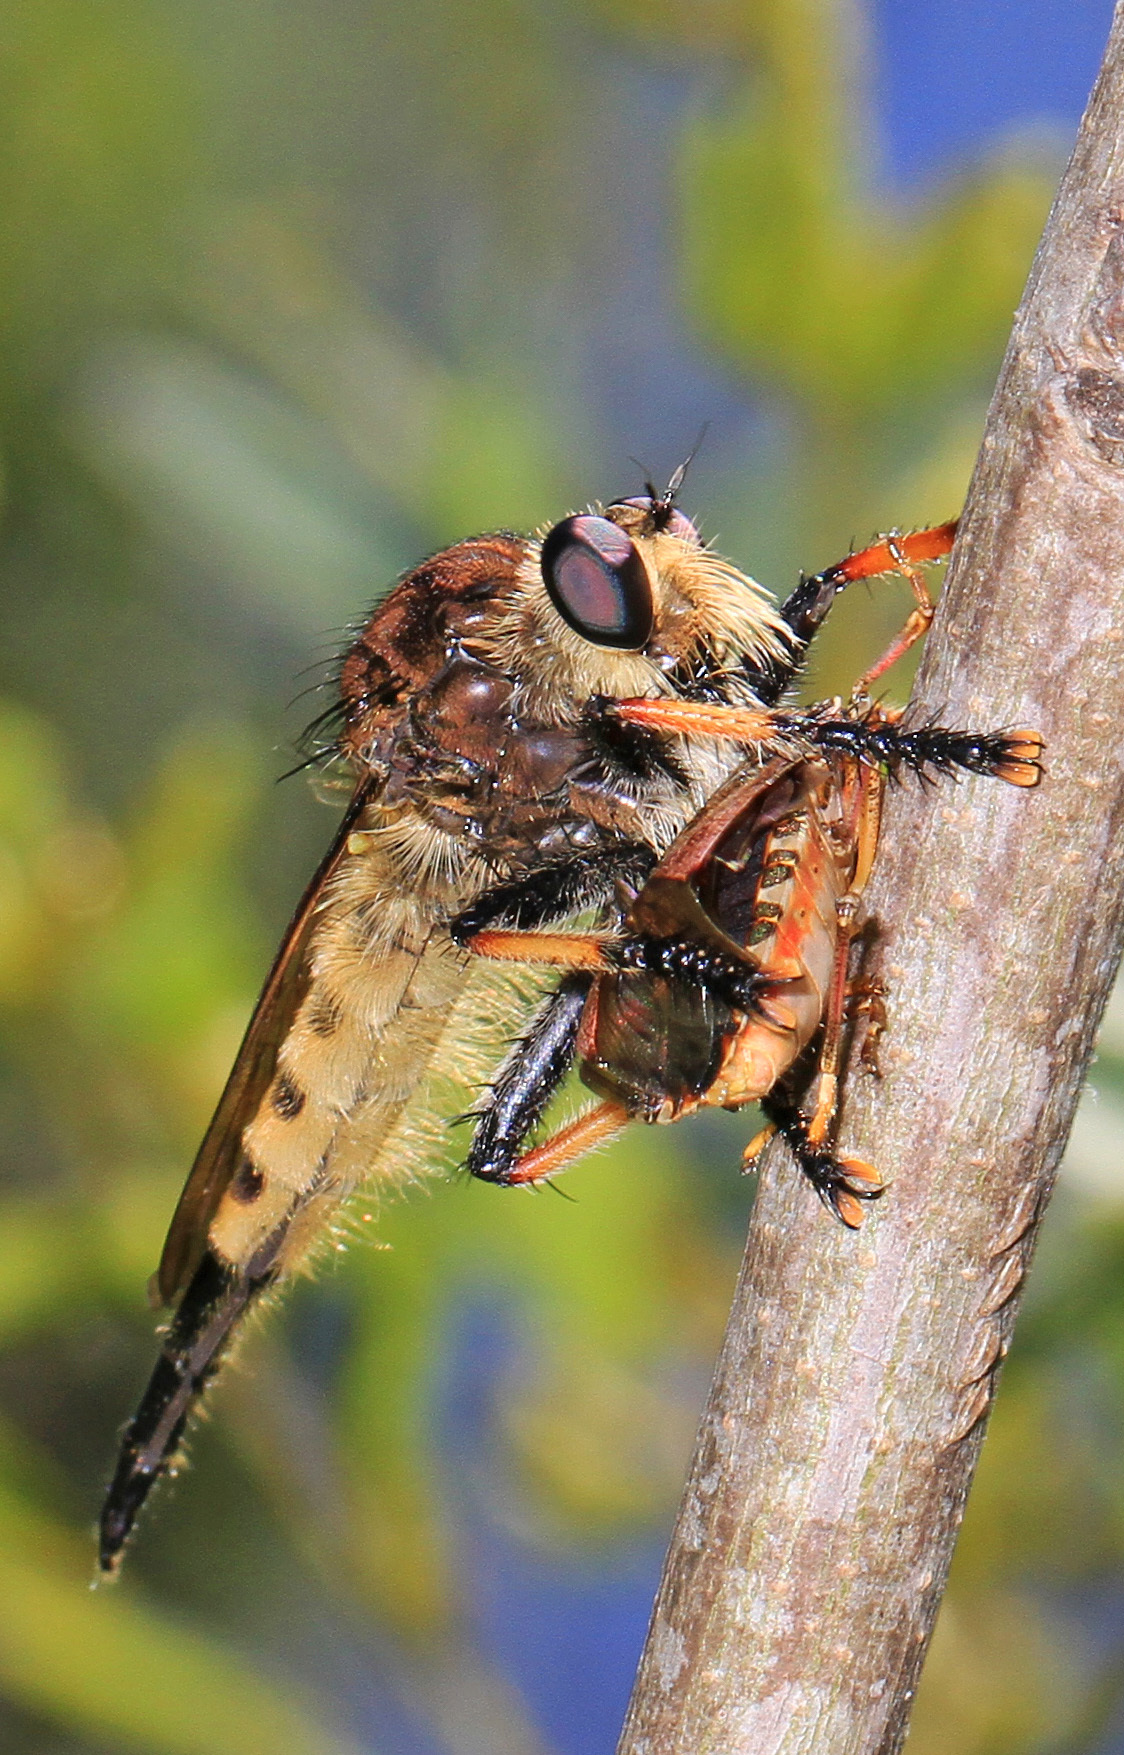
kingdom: Animalia
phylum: Arthropoda
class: Insecta
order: Diptera
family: Asilidae
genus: Promachus
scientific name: Promachus rufipes
